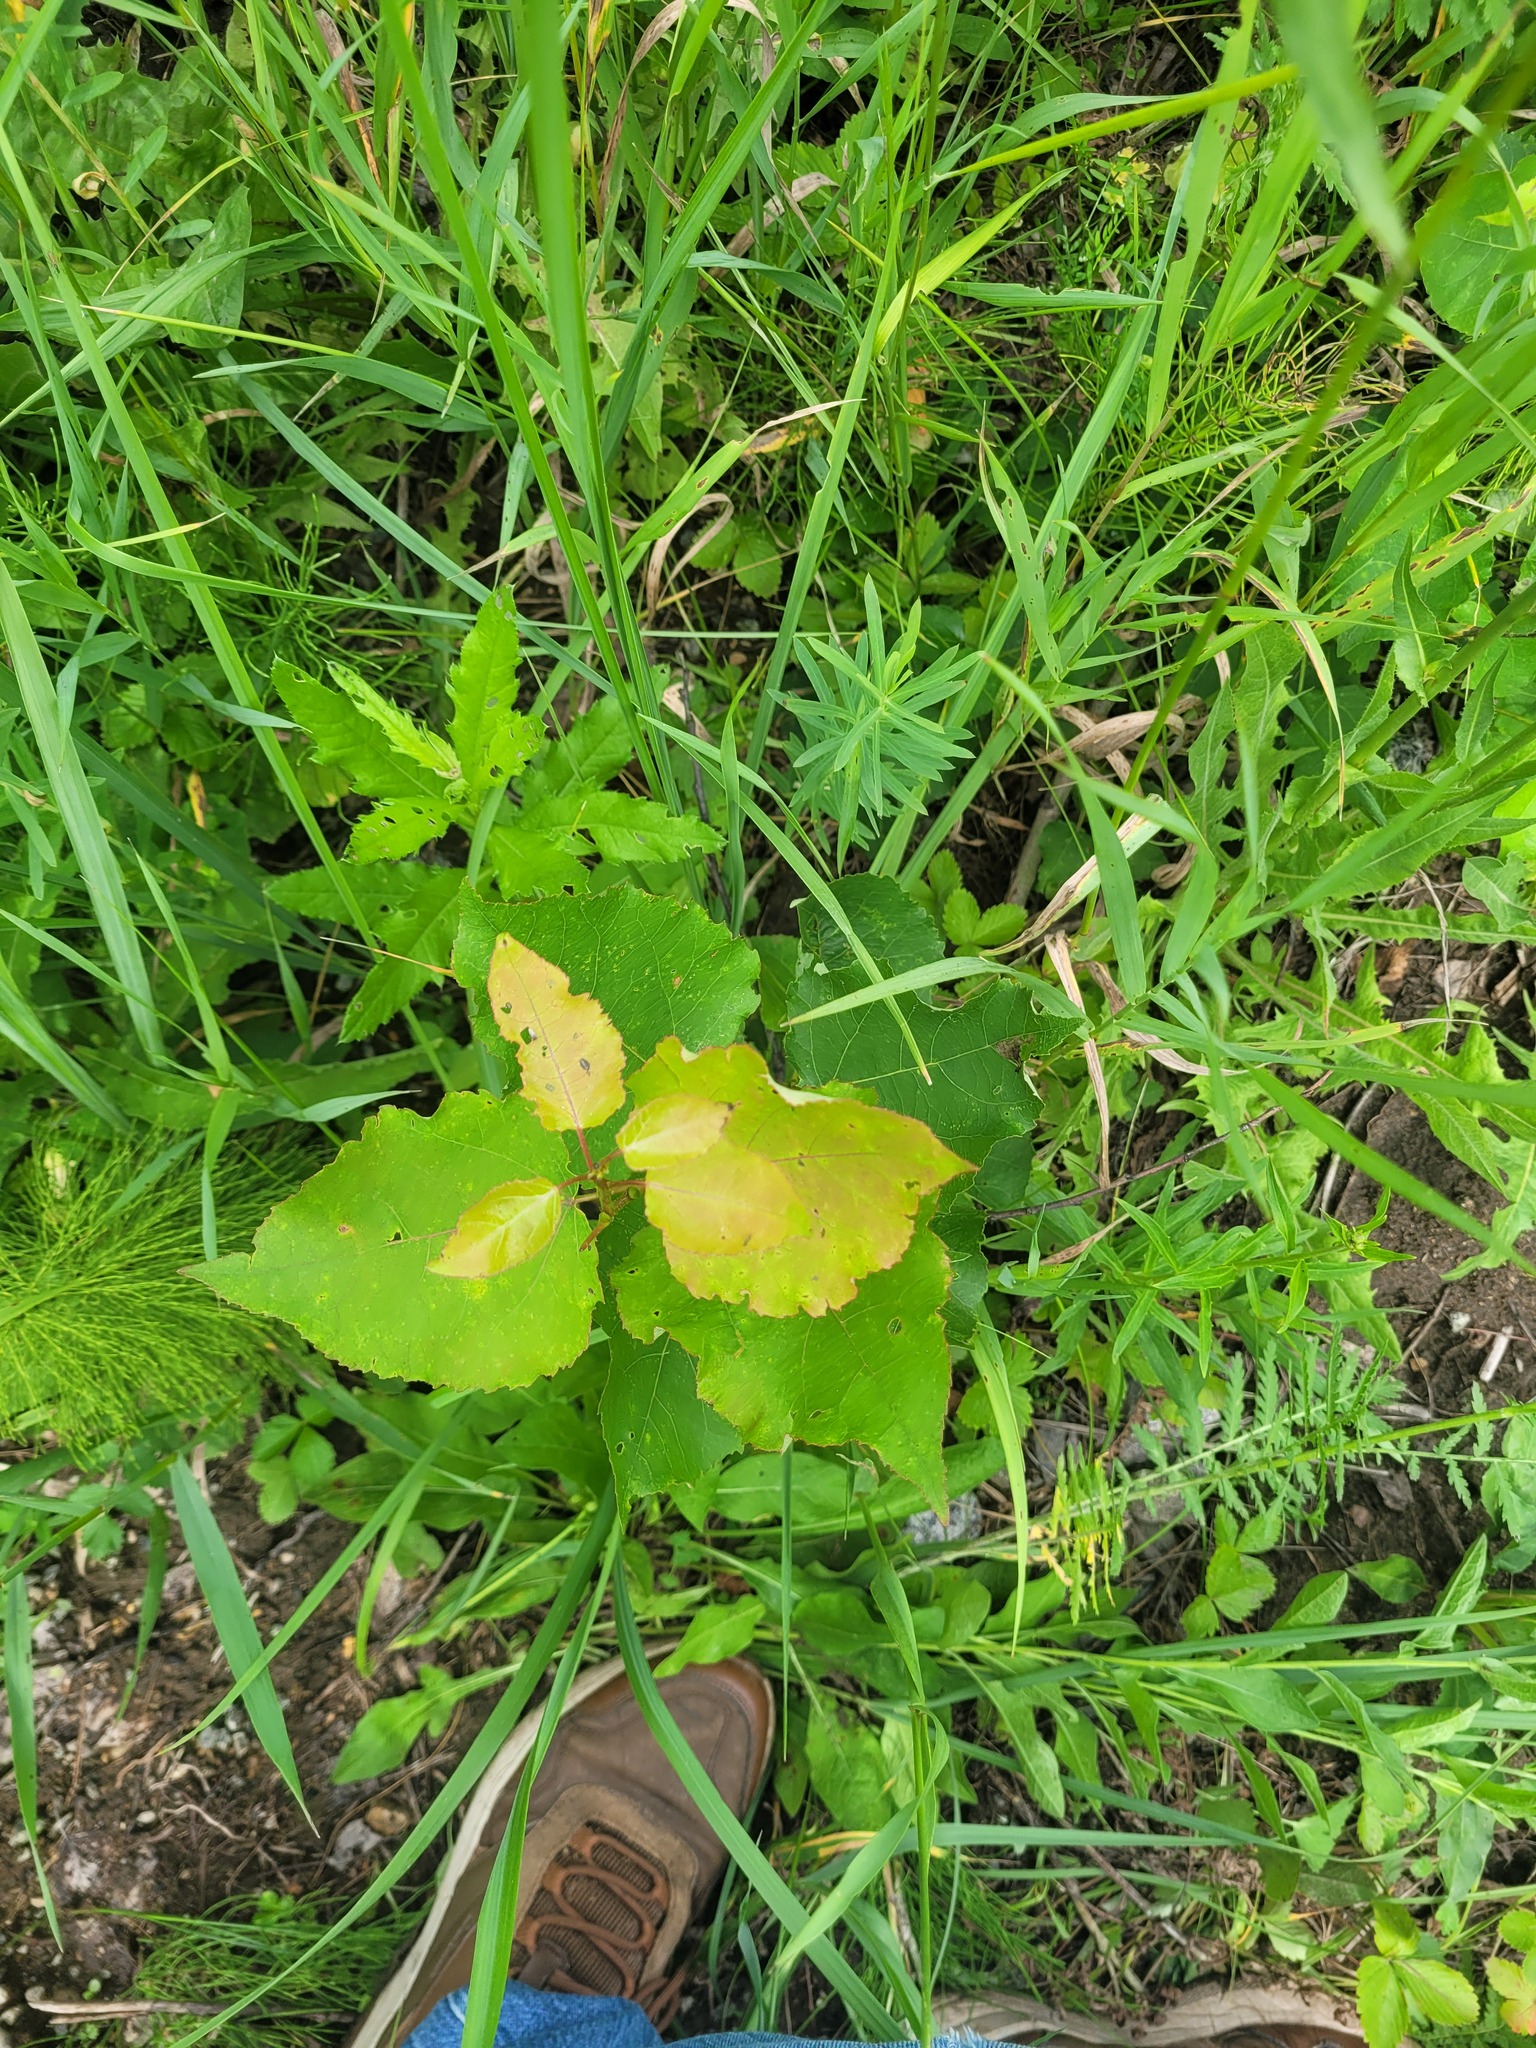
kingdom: Plantae
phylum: Tracheophyta
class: Magnoliopsida
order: Malpighiales
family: Salicaceae
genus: Populus
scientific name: Populus tremula
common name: European aspen
